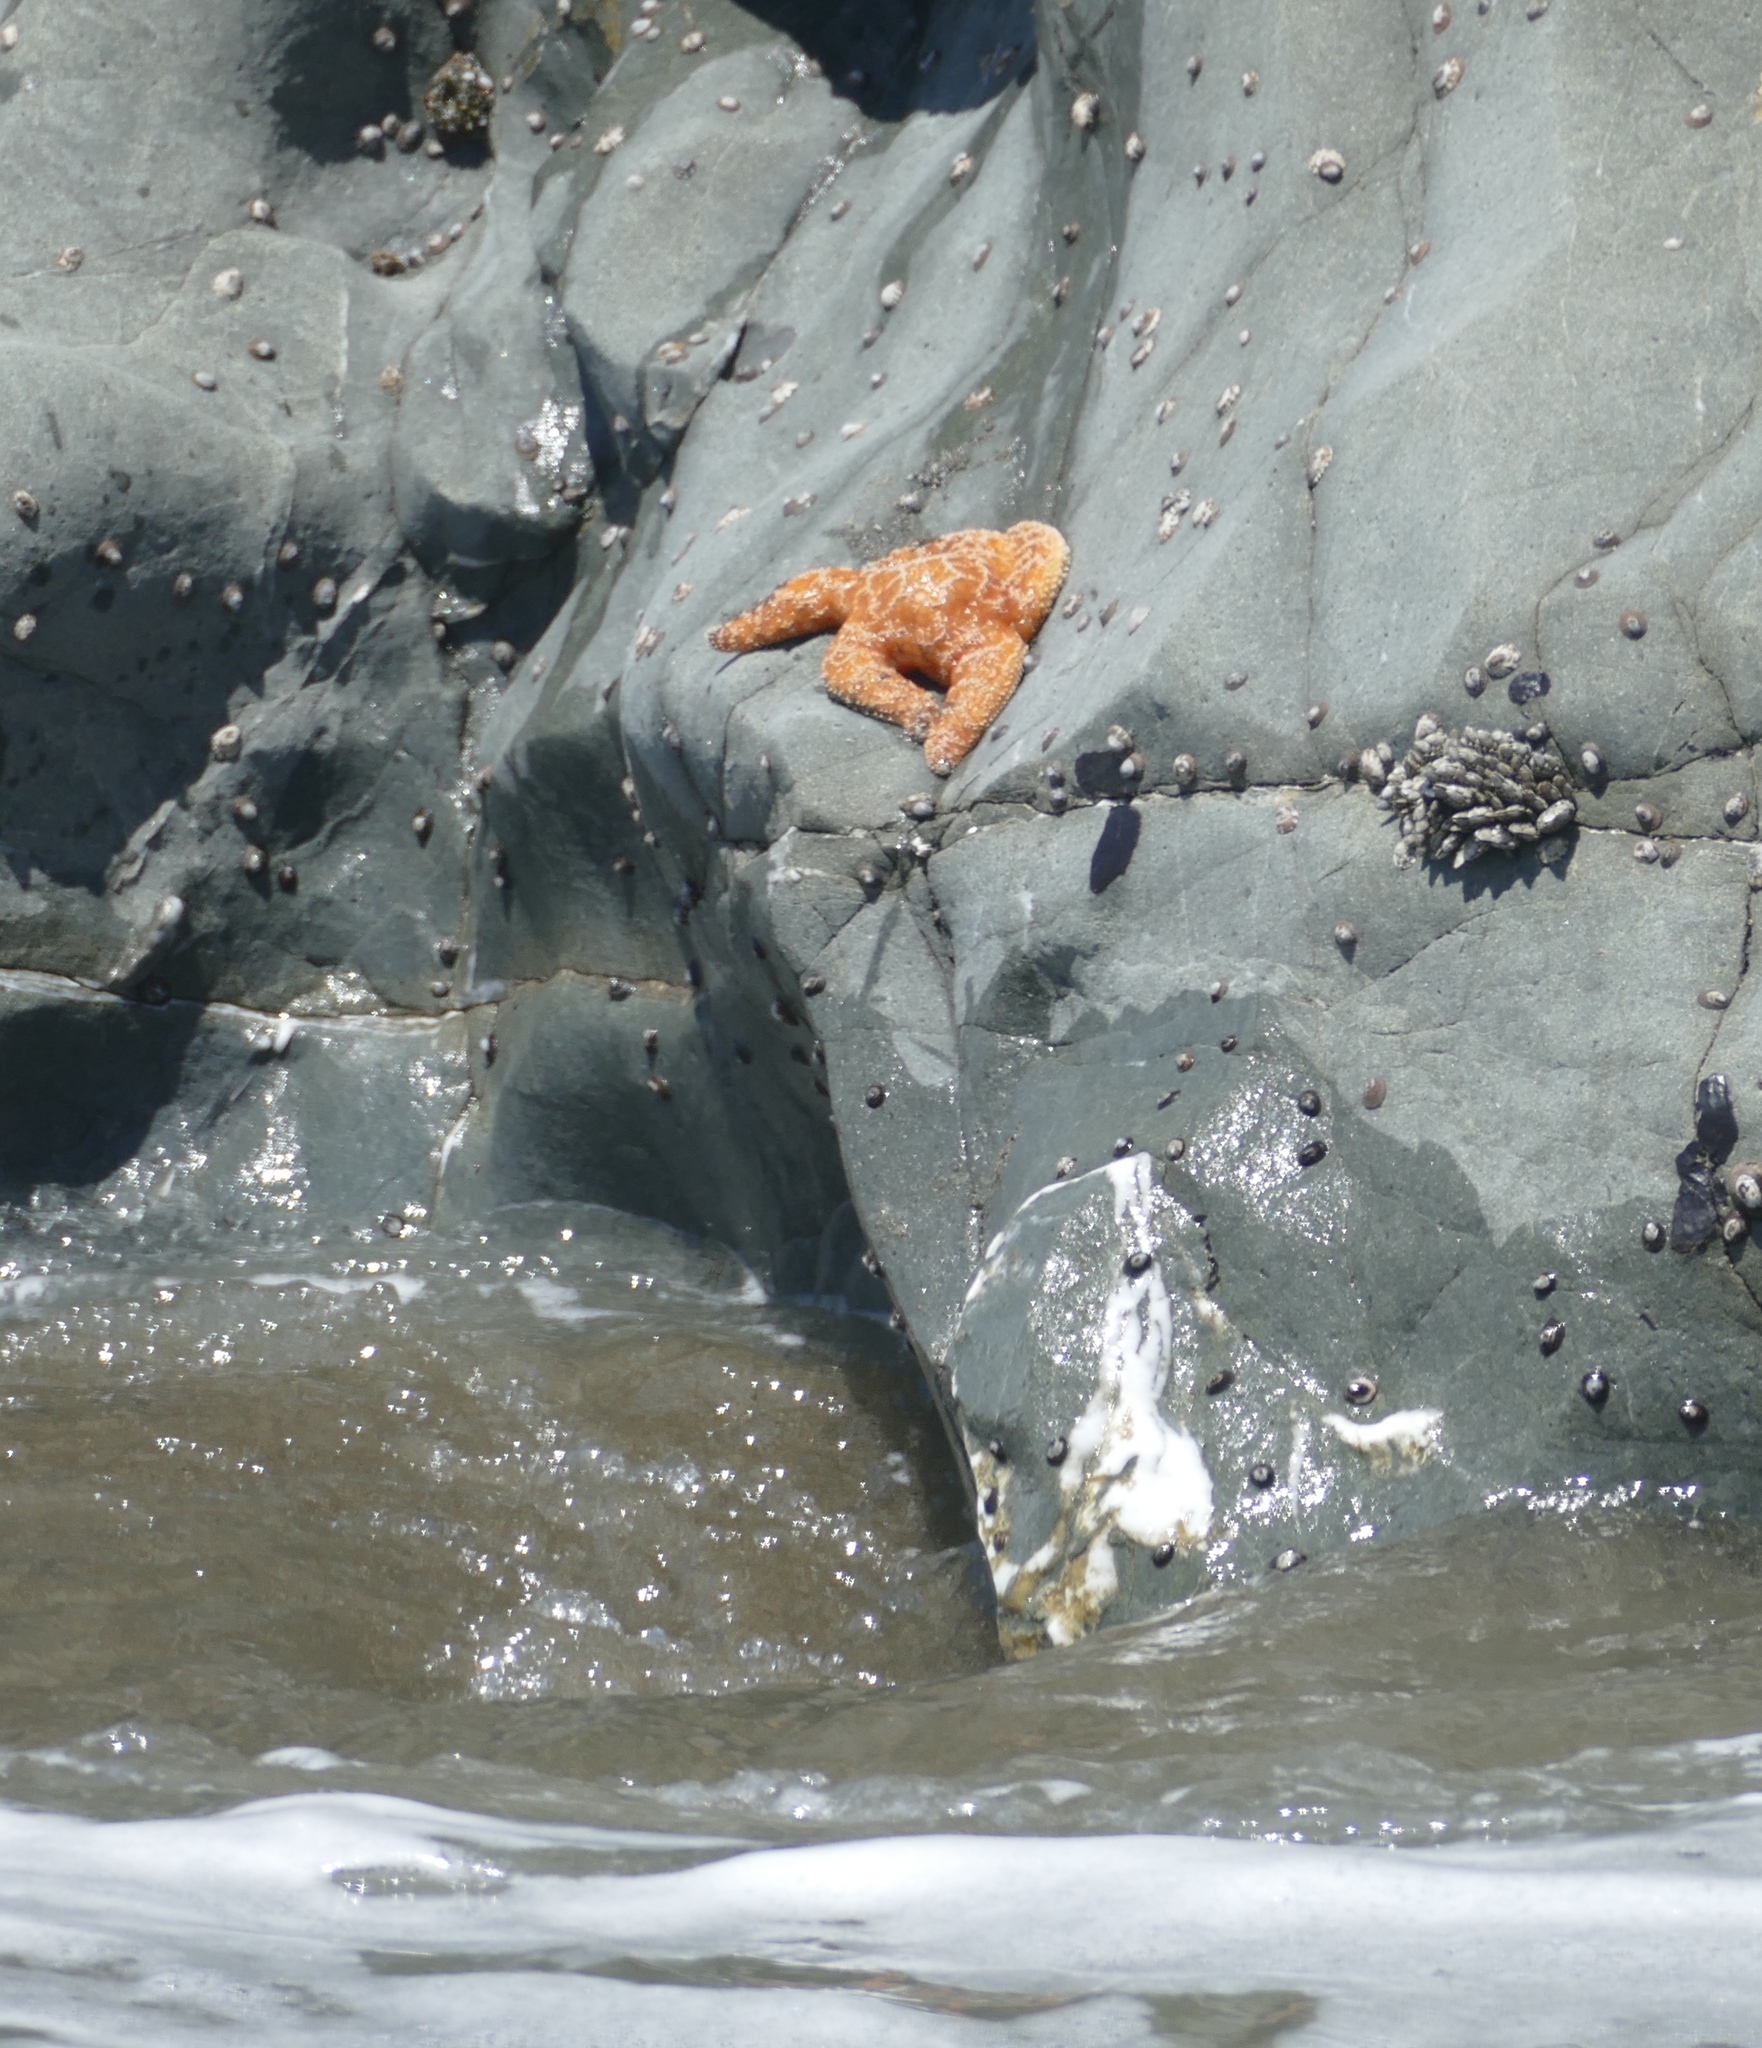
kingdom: Animalia
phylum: Echinodermata
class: Asteroidea
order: Forcipulatida
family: Asteriidae
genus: Pisaster
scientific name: Pisaster ochraceus
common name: Ochre stars
